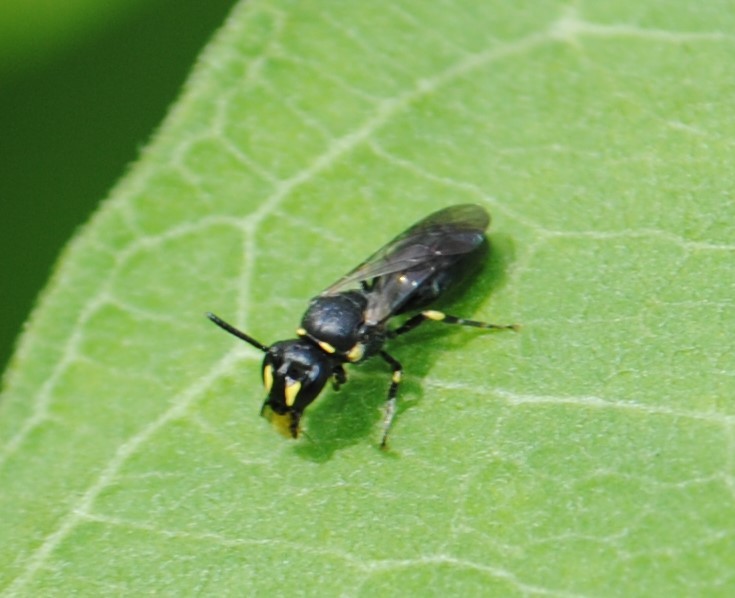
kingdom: Animalia
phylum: Arthropoda
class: Insecta
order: Hymenoptera
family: Colletidae
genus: Hylaeus
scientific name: Hylaeus modestus
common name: Yellow-faced bee
